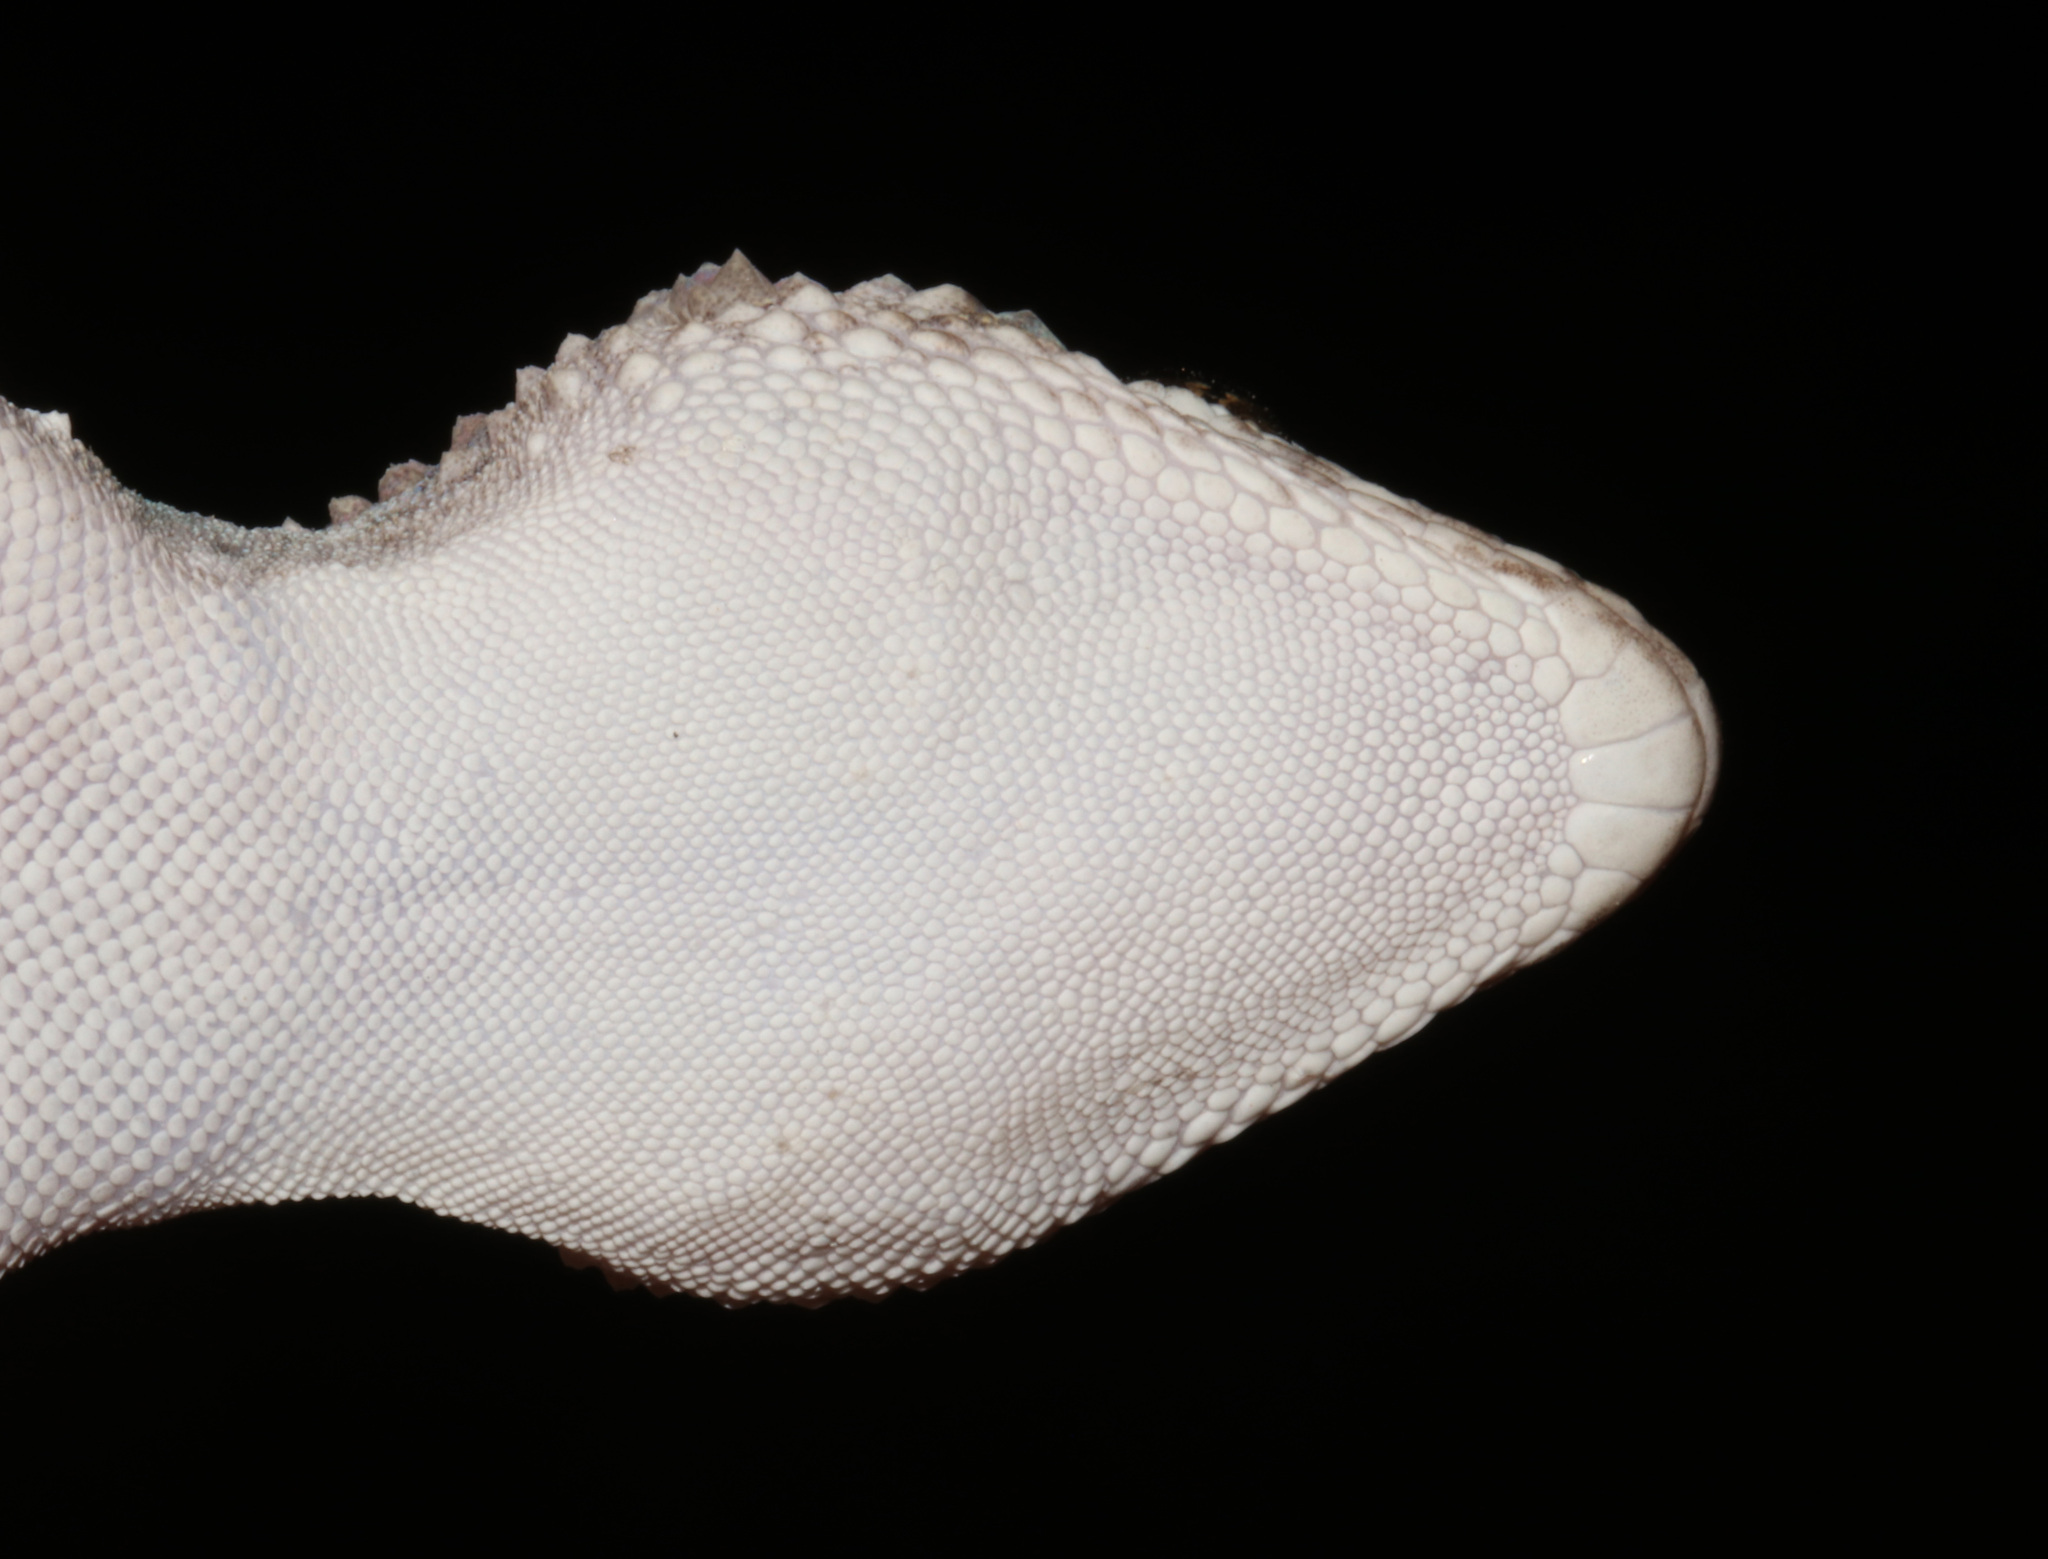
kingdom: Animalia
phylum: Chordata
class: Squamata
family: Gekkonidae
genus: Chondrodactylus
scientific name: Chondrodactylus laevigatus
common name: Fischer's thick-toed gecko
